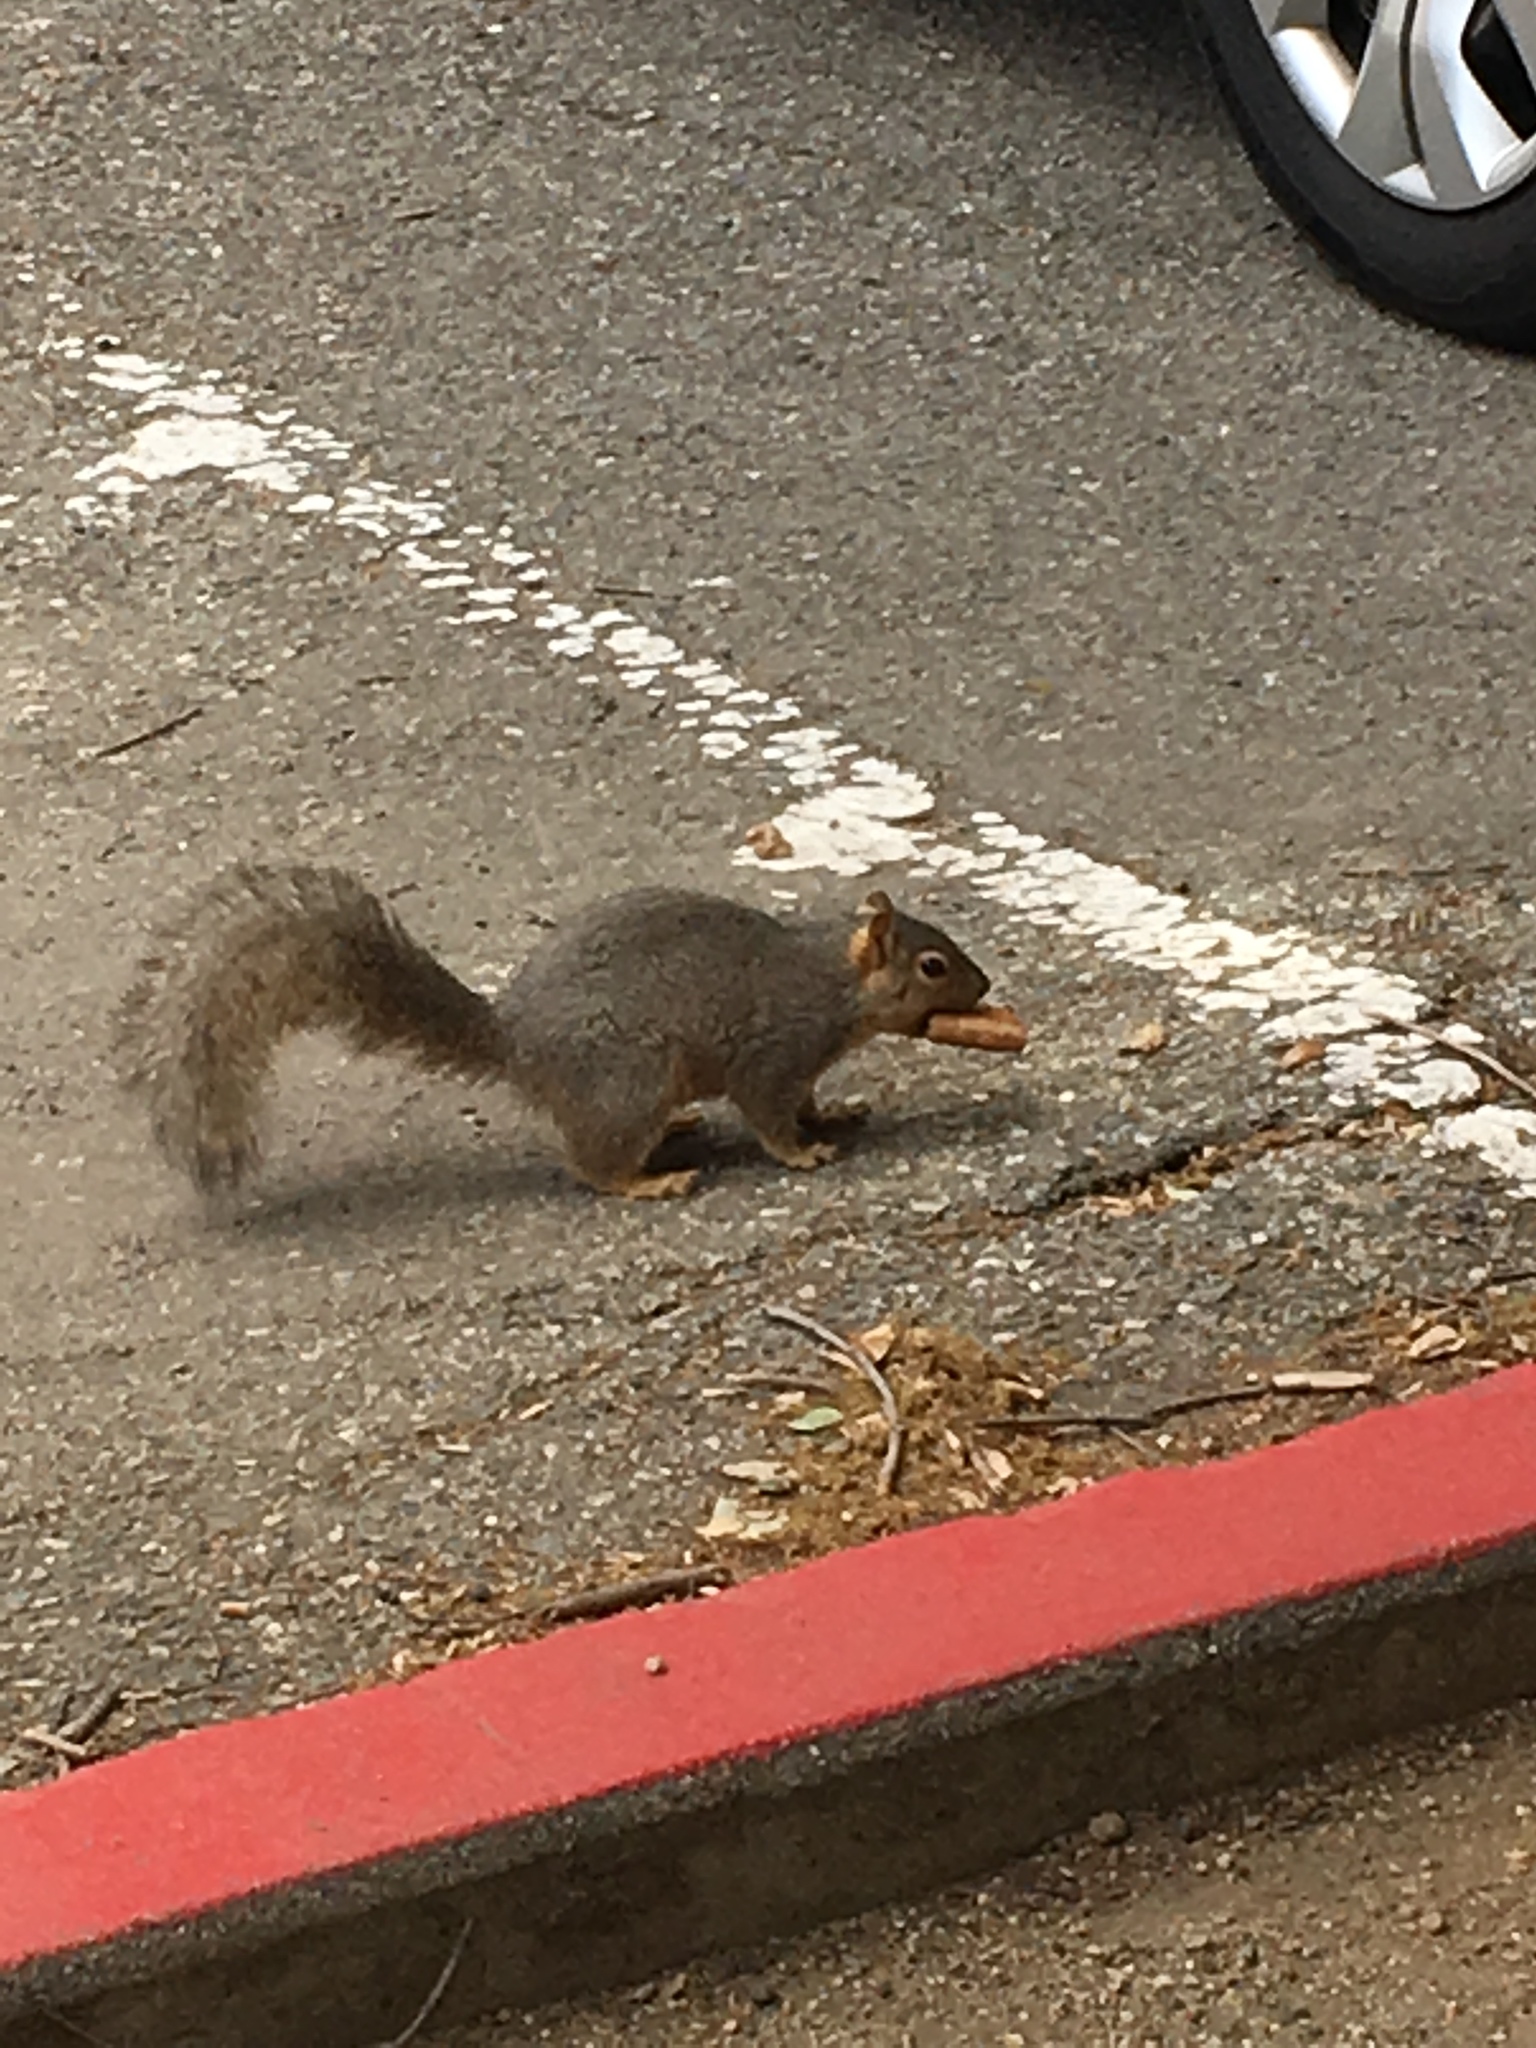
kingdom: Animalia
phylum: Chordata
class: Mammalia
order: Rodentia
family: Sciuridae
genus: Sciurus
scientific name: Sciurus niger
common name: Fox squirrel
